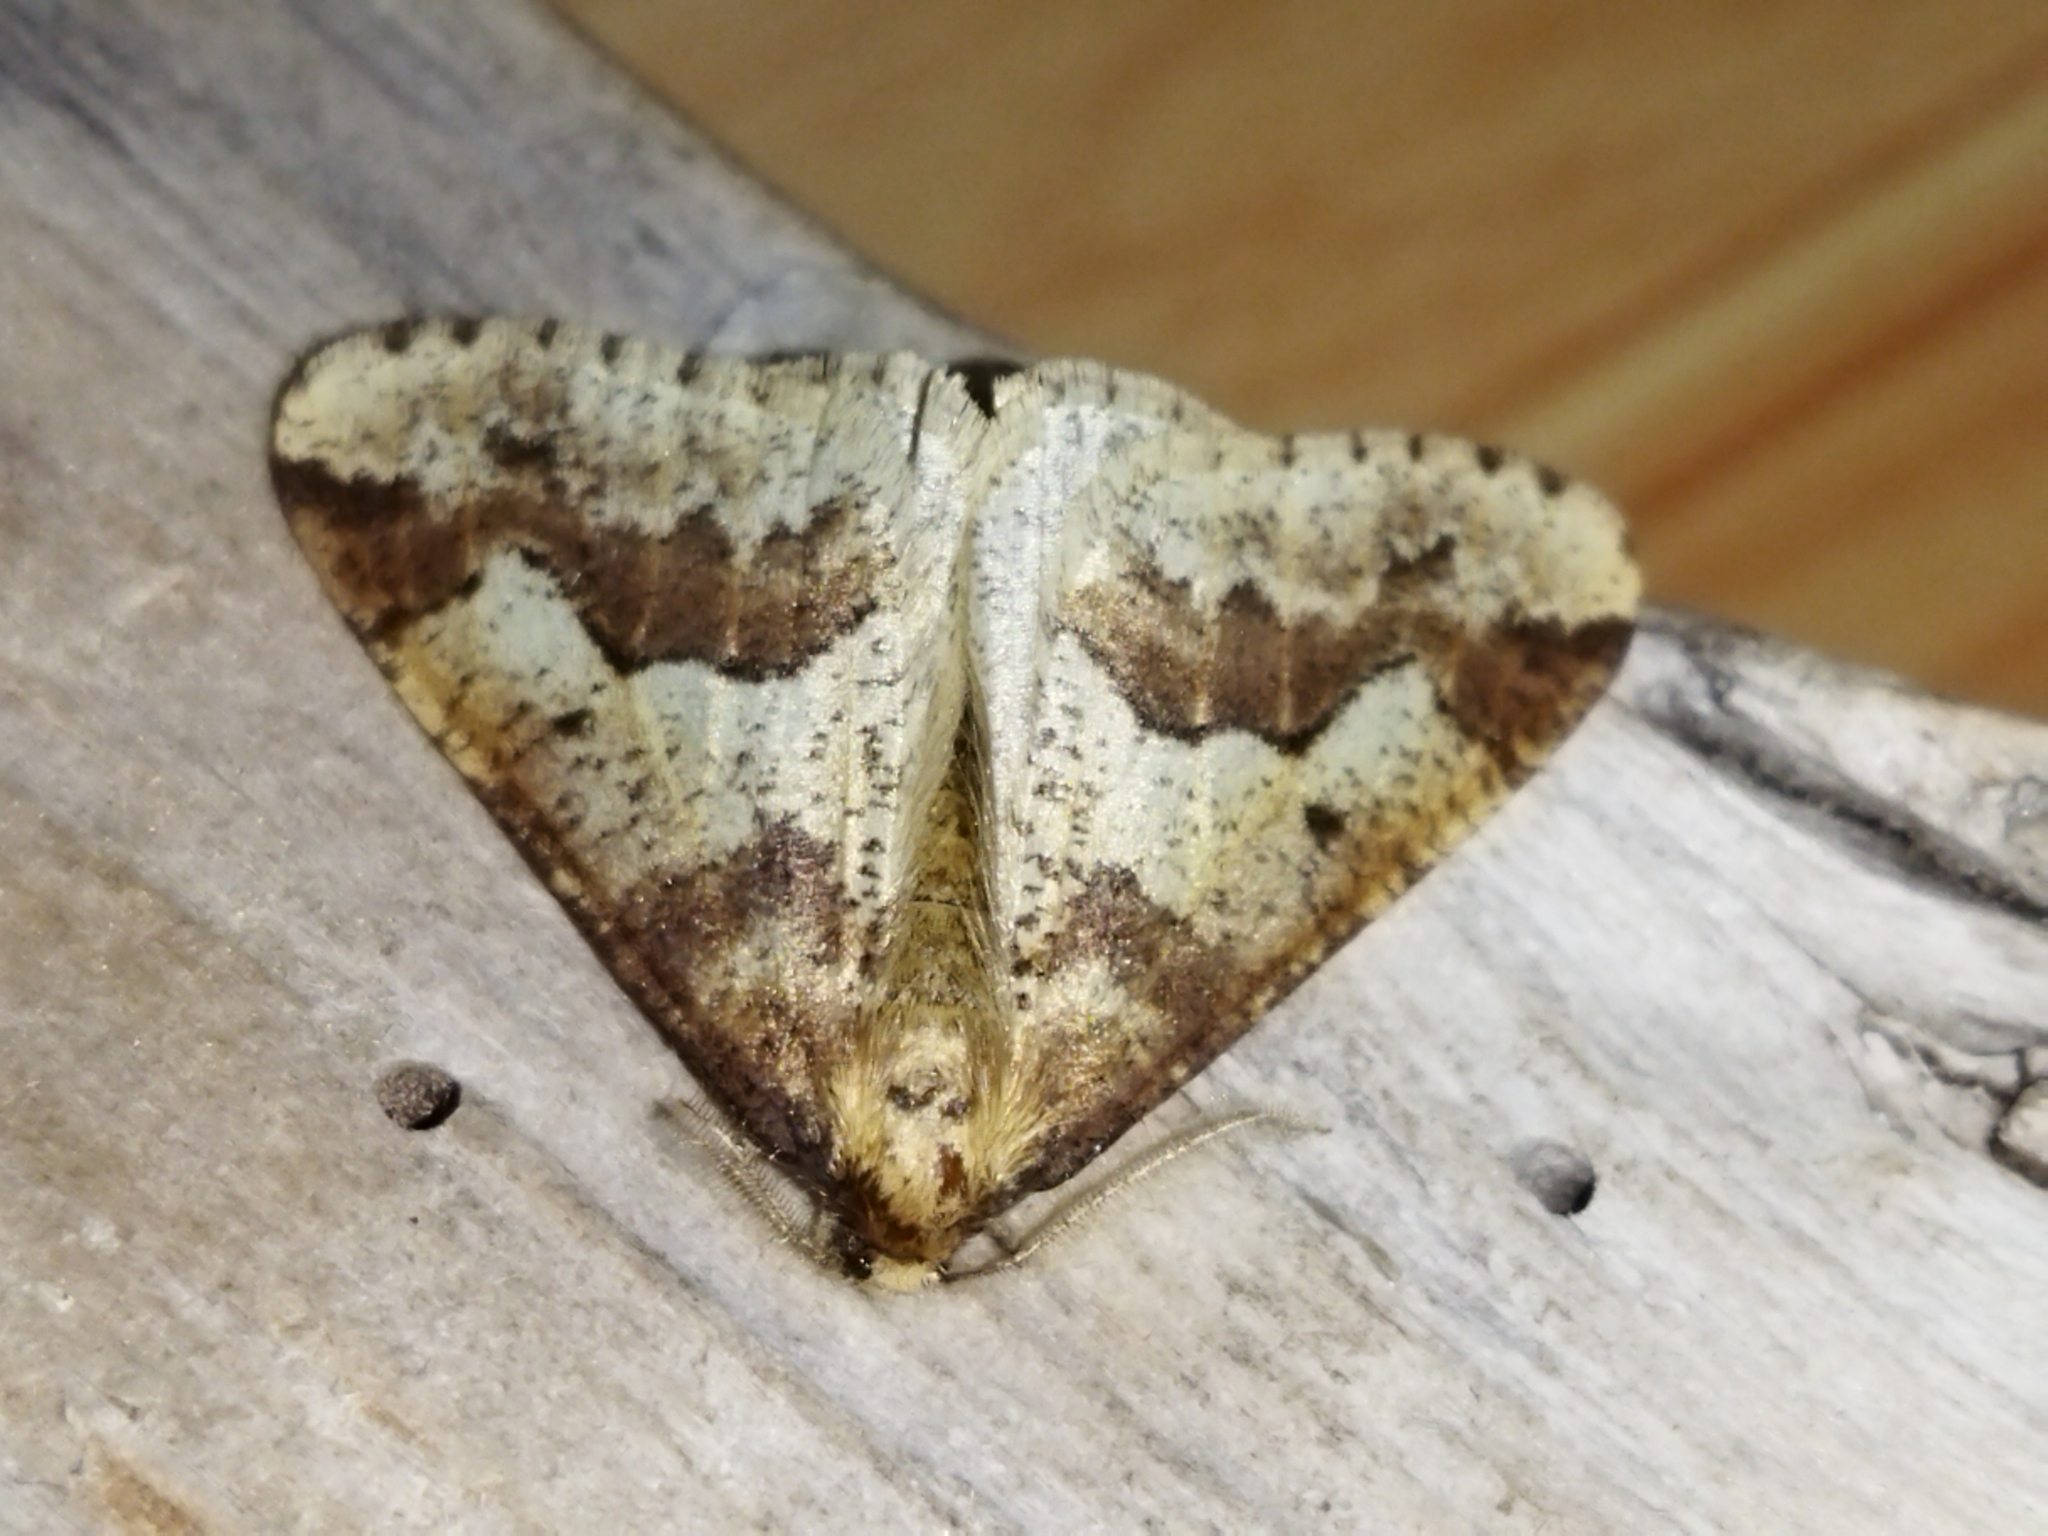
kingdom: Animalia
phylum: Arthropoda
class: Insecta
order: Lepidoptera
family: Geometridae
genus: Erannis
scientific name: Erannis defoliaria
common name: Mottled umber
